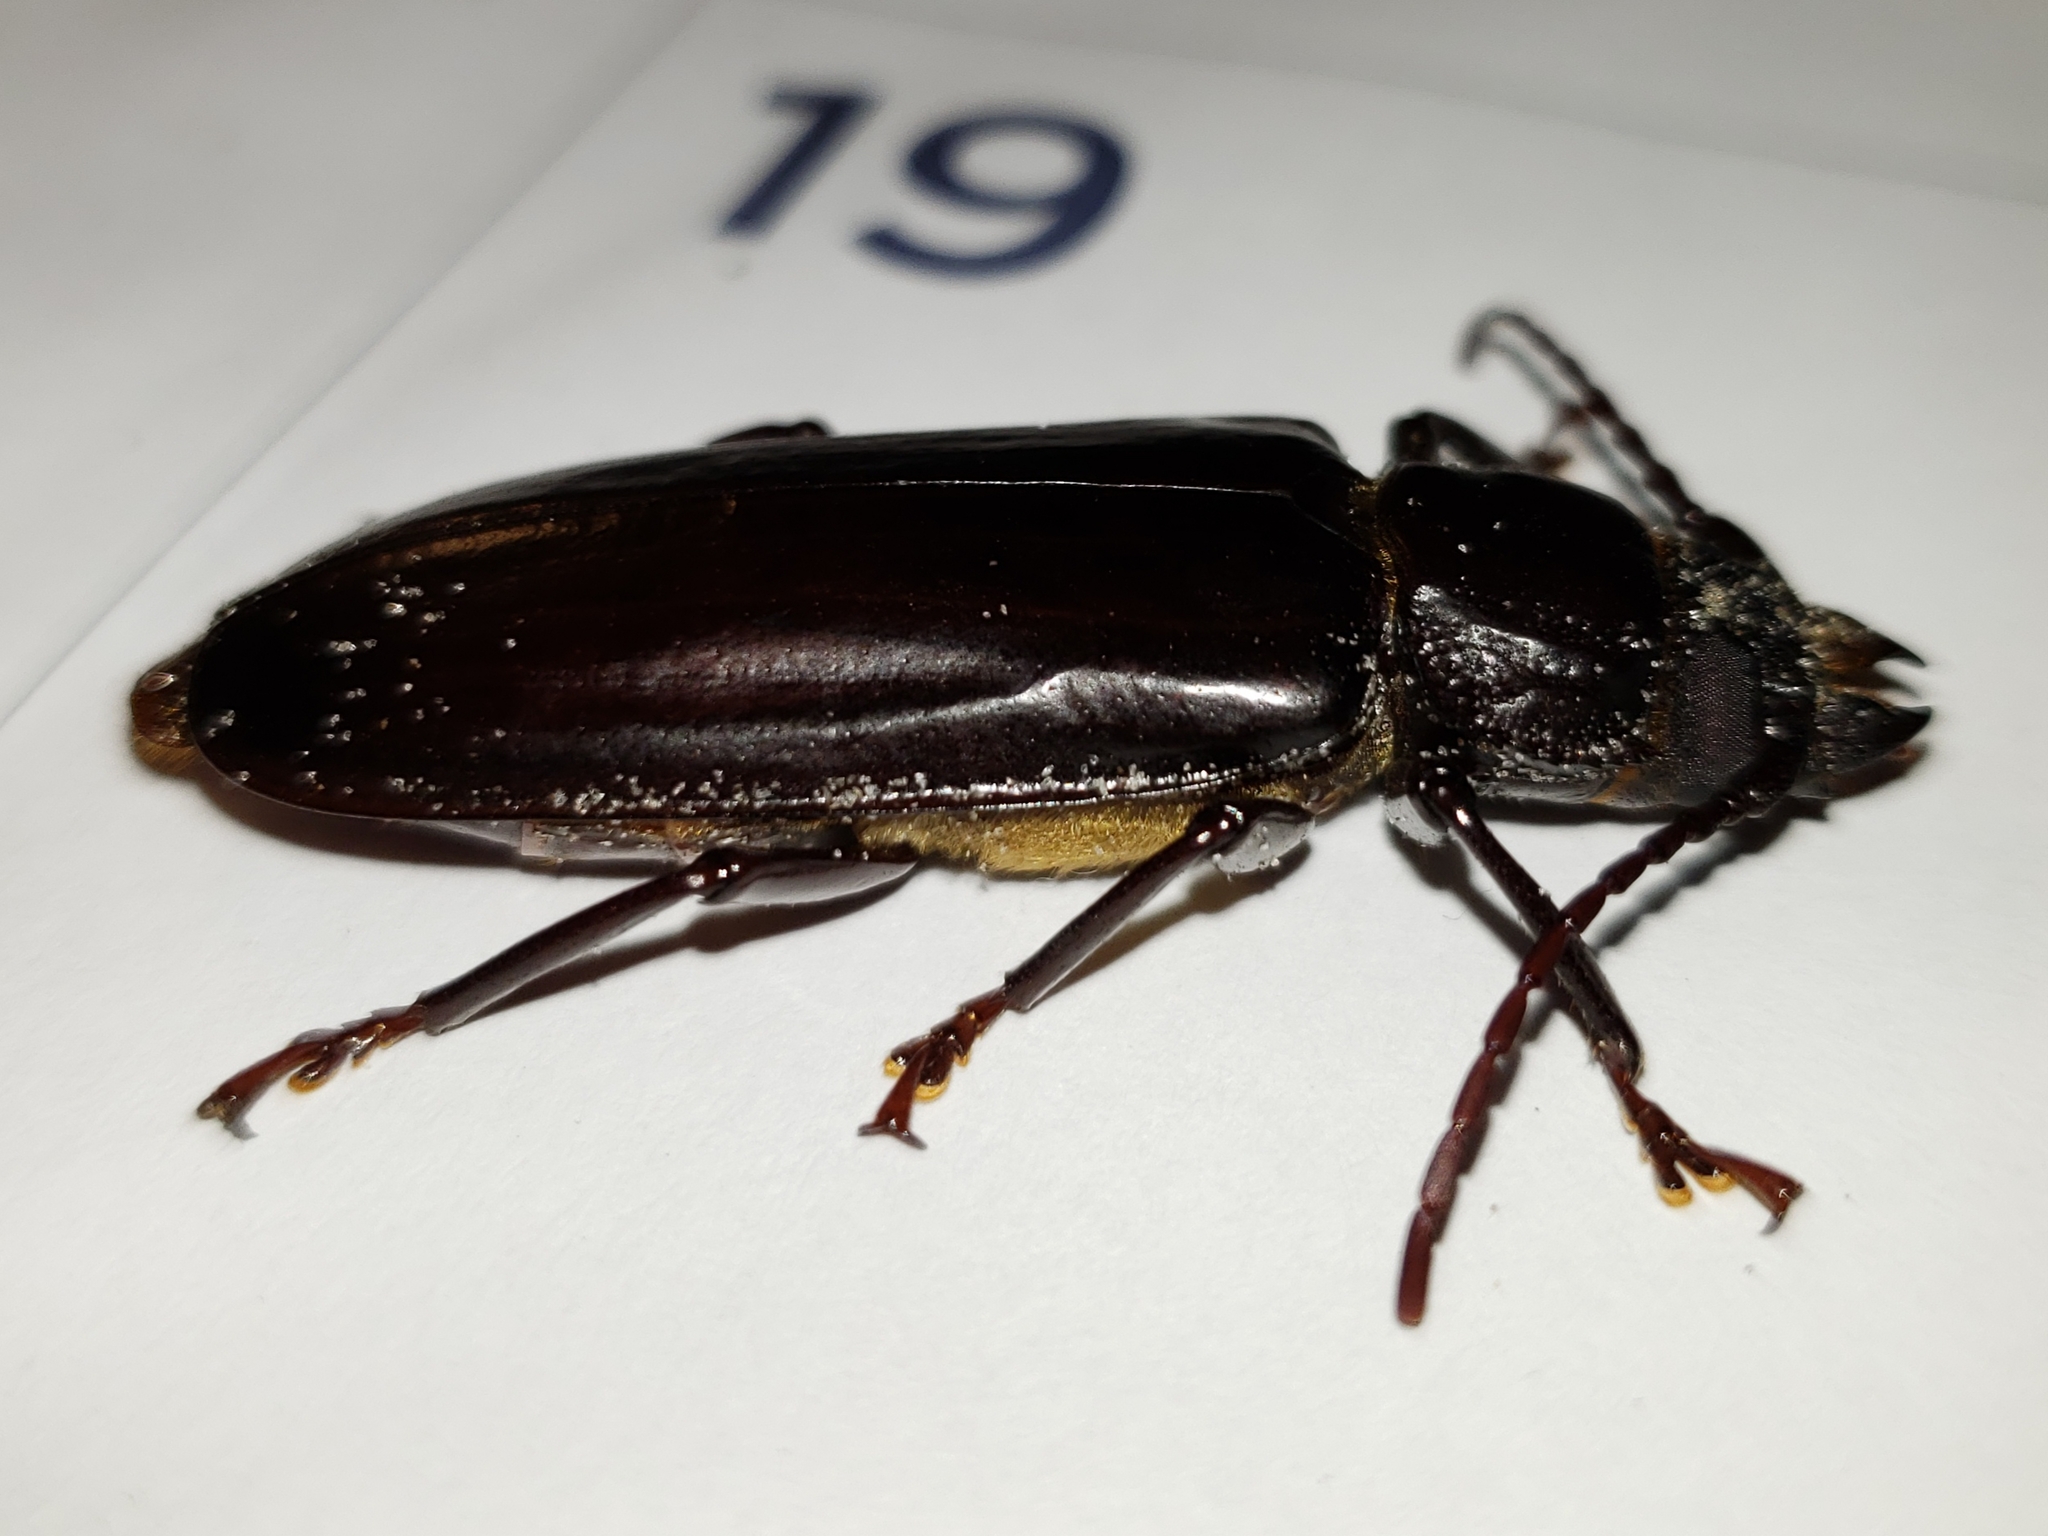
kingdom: Animalia
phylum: Arthropoda
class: Insecta
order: Coleoptera
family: Cerambycidae
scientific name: Cerambycidae
